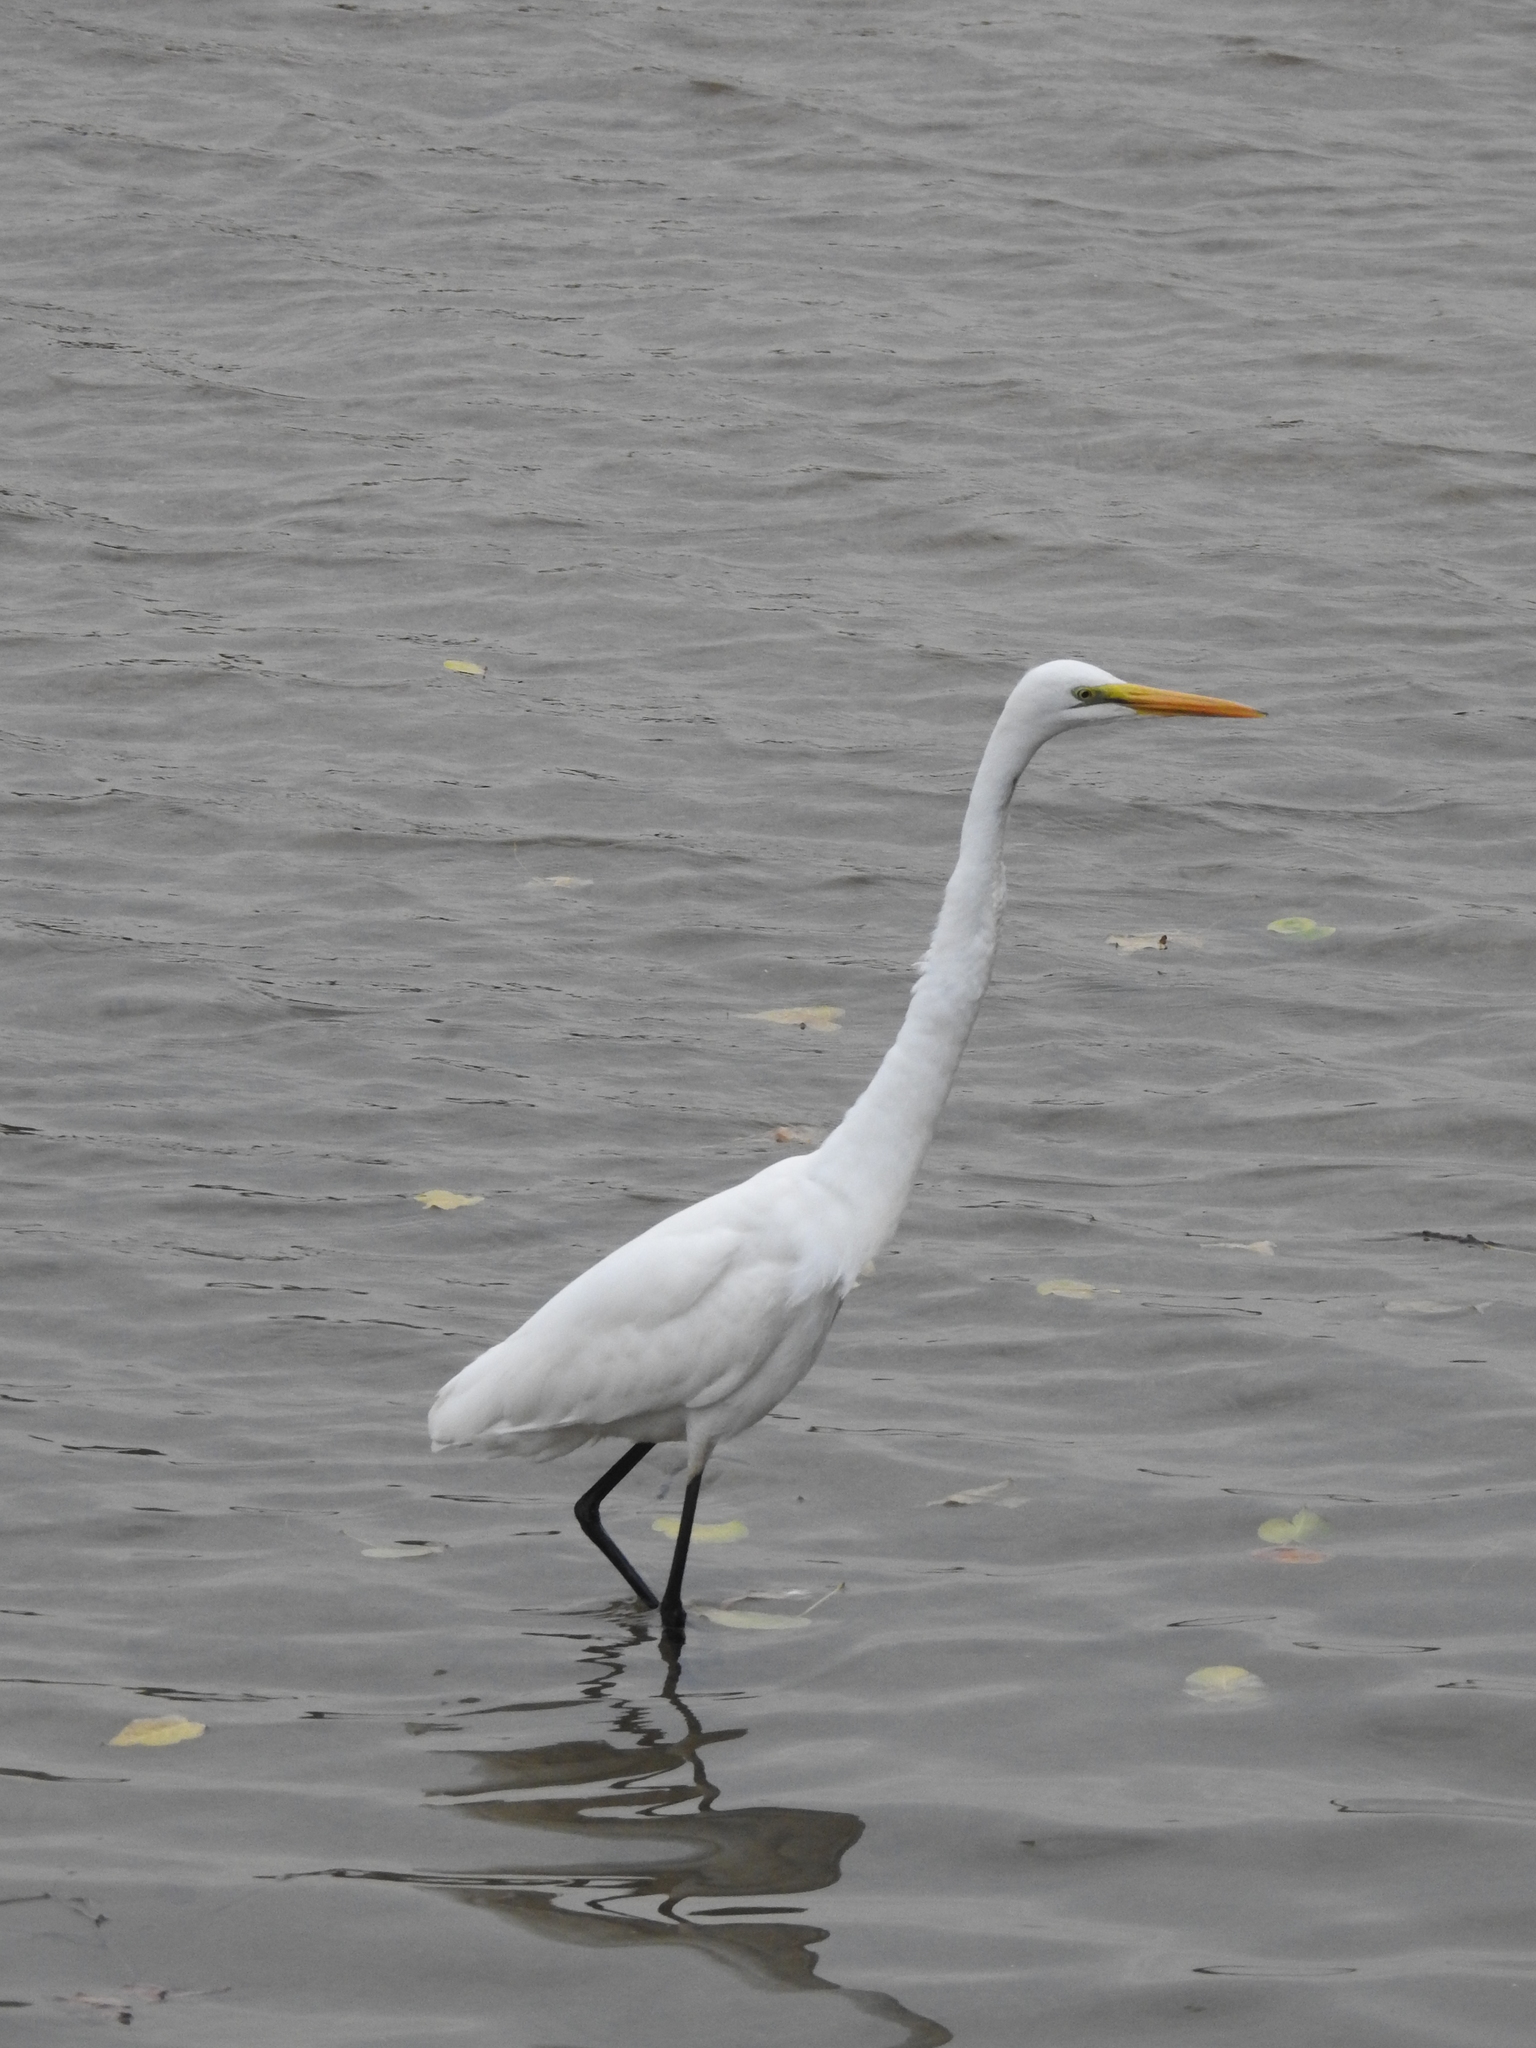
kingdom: Animalia
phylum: Chordata
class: Aves
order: Pelecaniformes
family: Ardeidae
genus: Ardea
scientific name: Ardea alba
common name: Great egret
